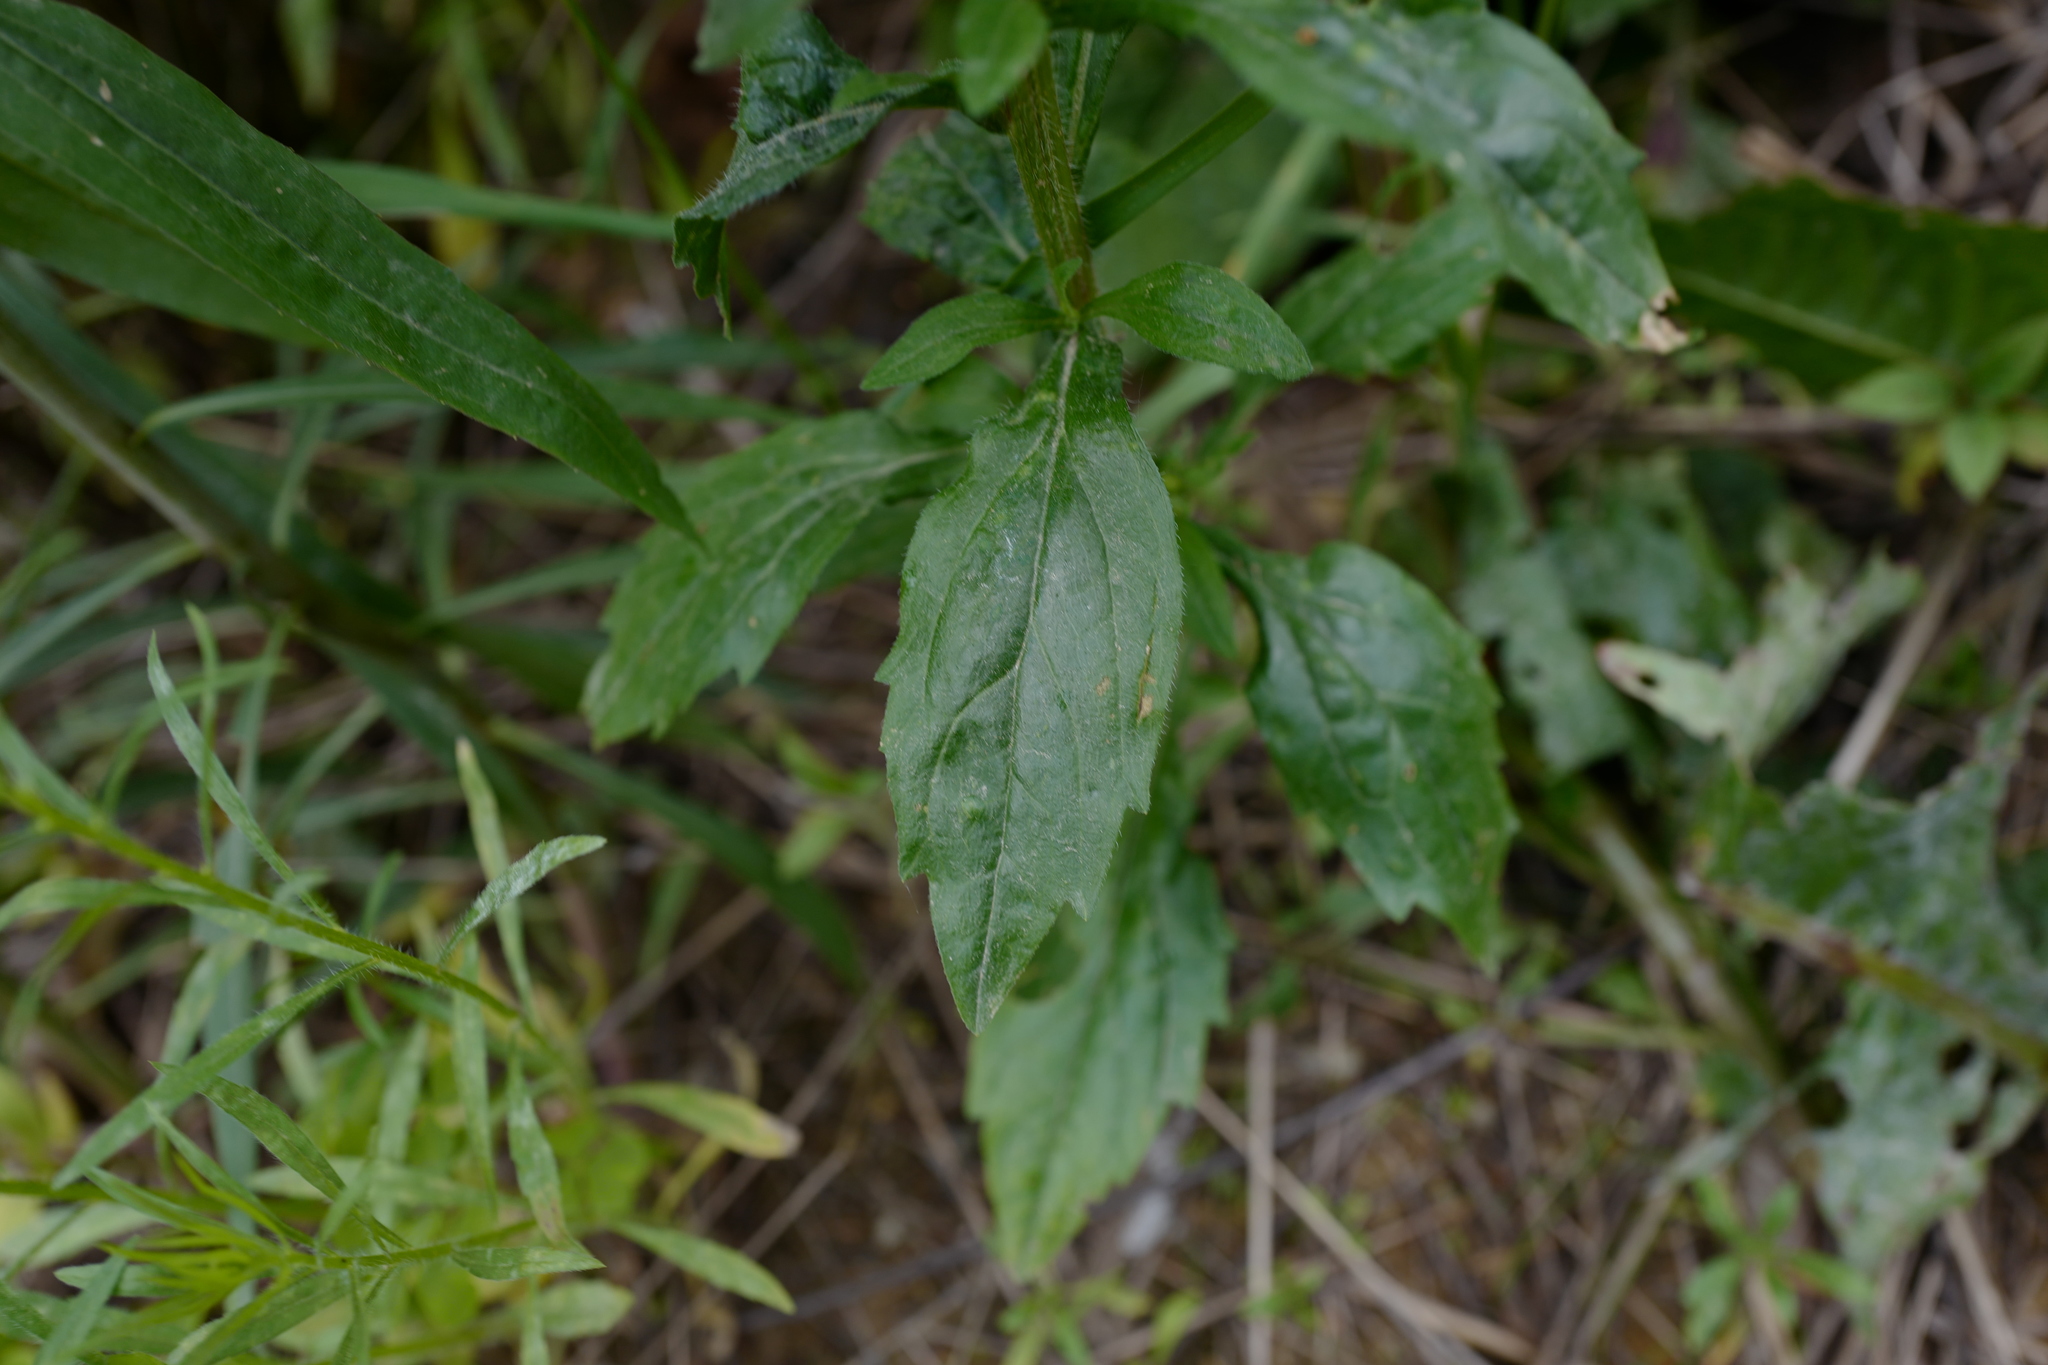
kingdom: Plantae
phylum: Tracheophyta
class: Magnoliopsida
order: Asterales
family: Asteraceae
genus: Erigeron
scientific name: Erigeron annuus
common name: Tall fleabane
